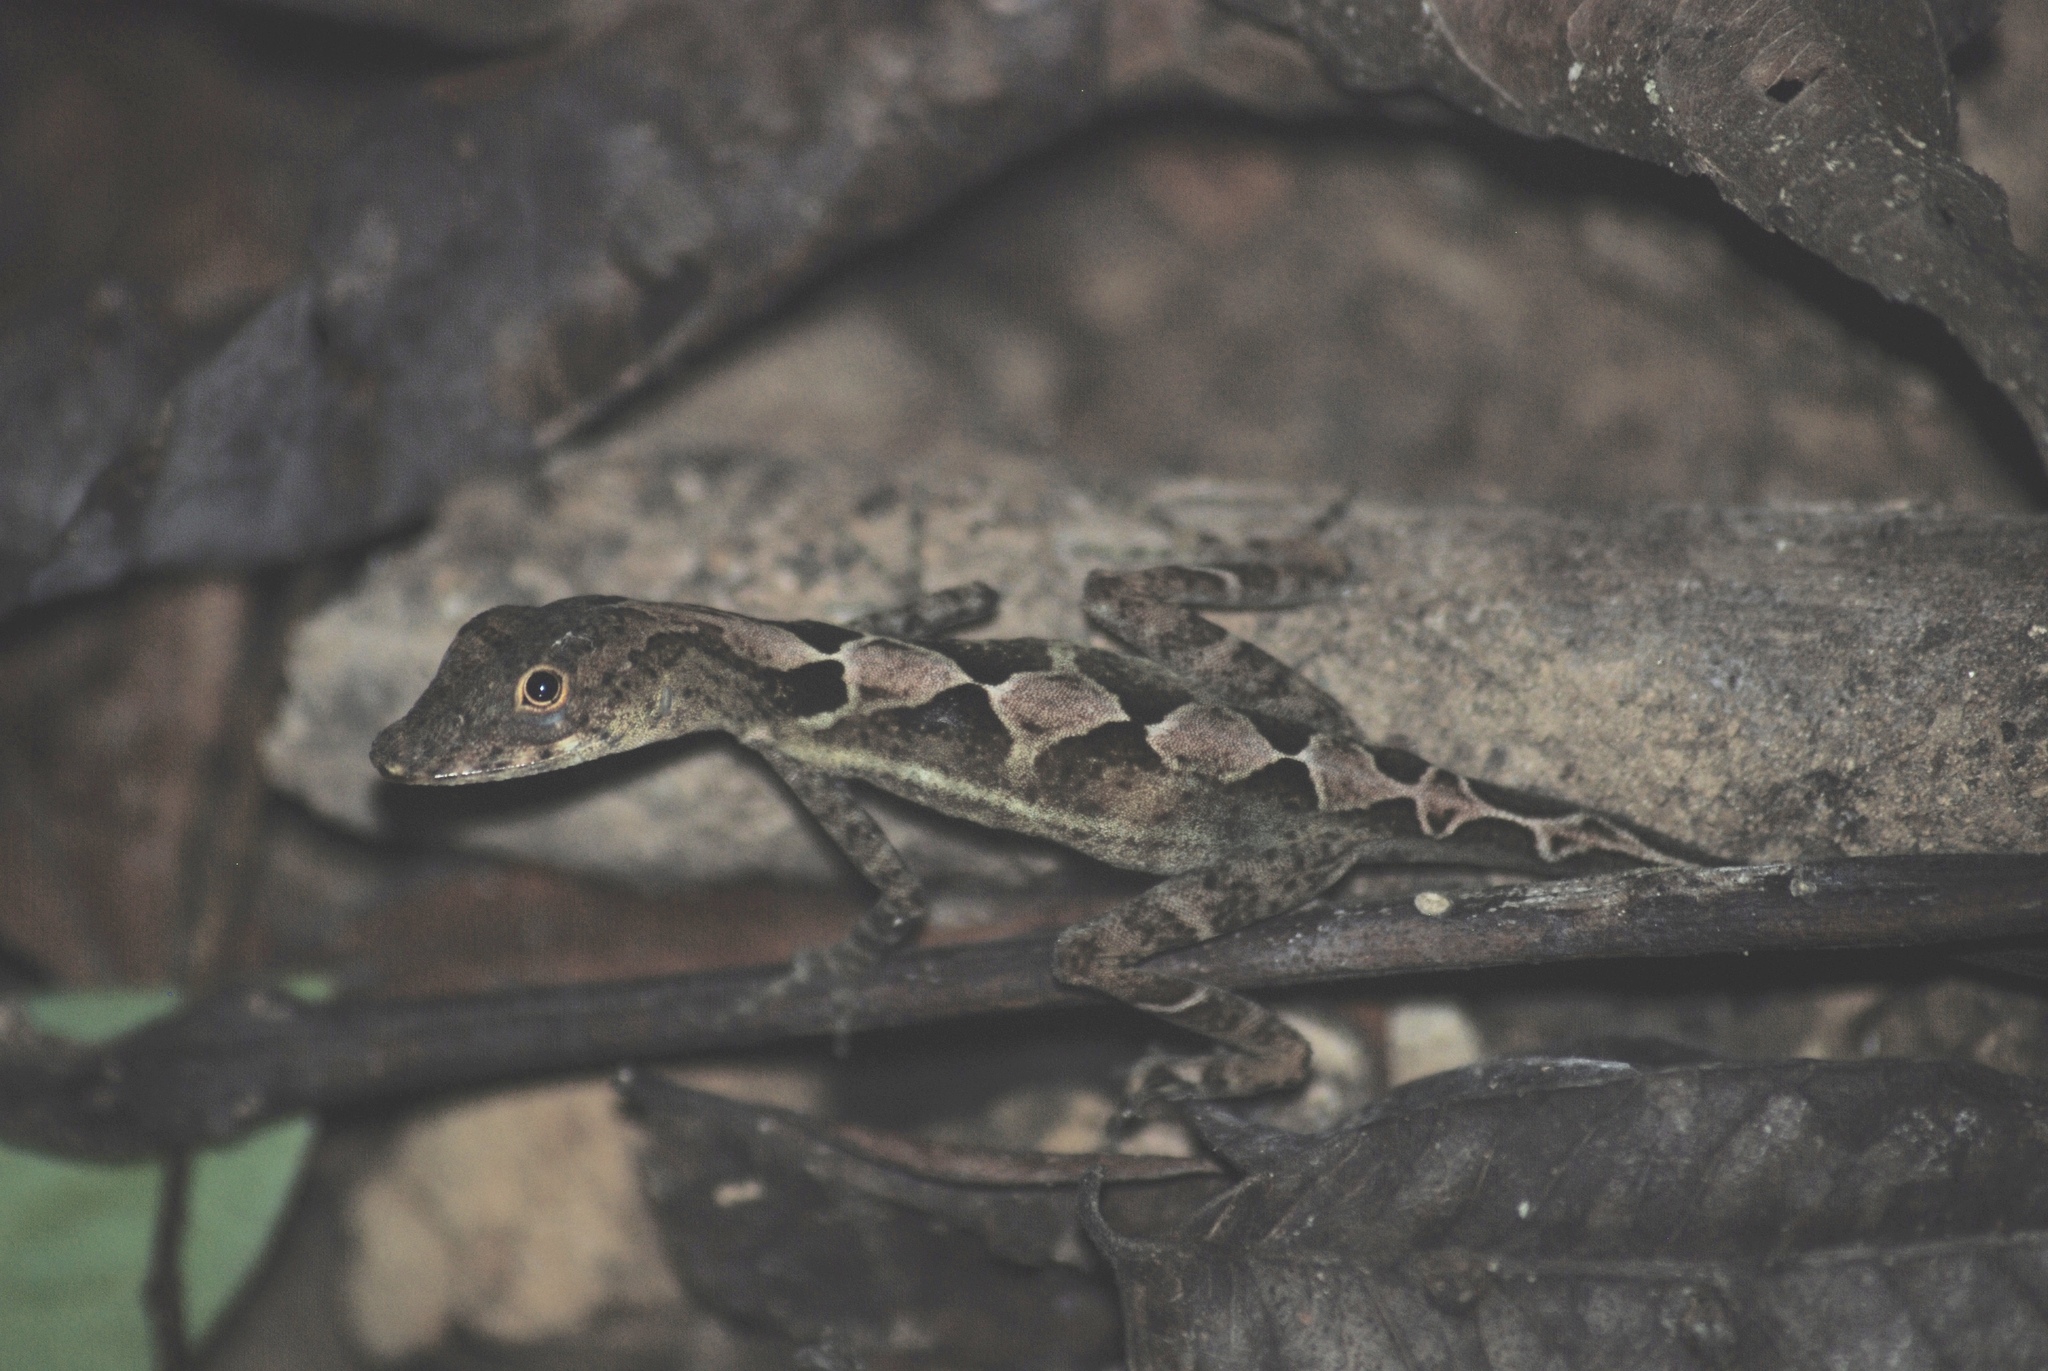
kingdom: Animalia
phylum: Chordata
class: Squamata
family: Dactyloidae
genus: Anolis
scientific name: Anolis polylepis
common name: Many-scaled anole
